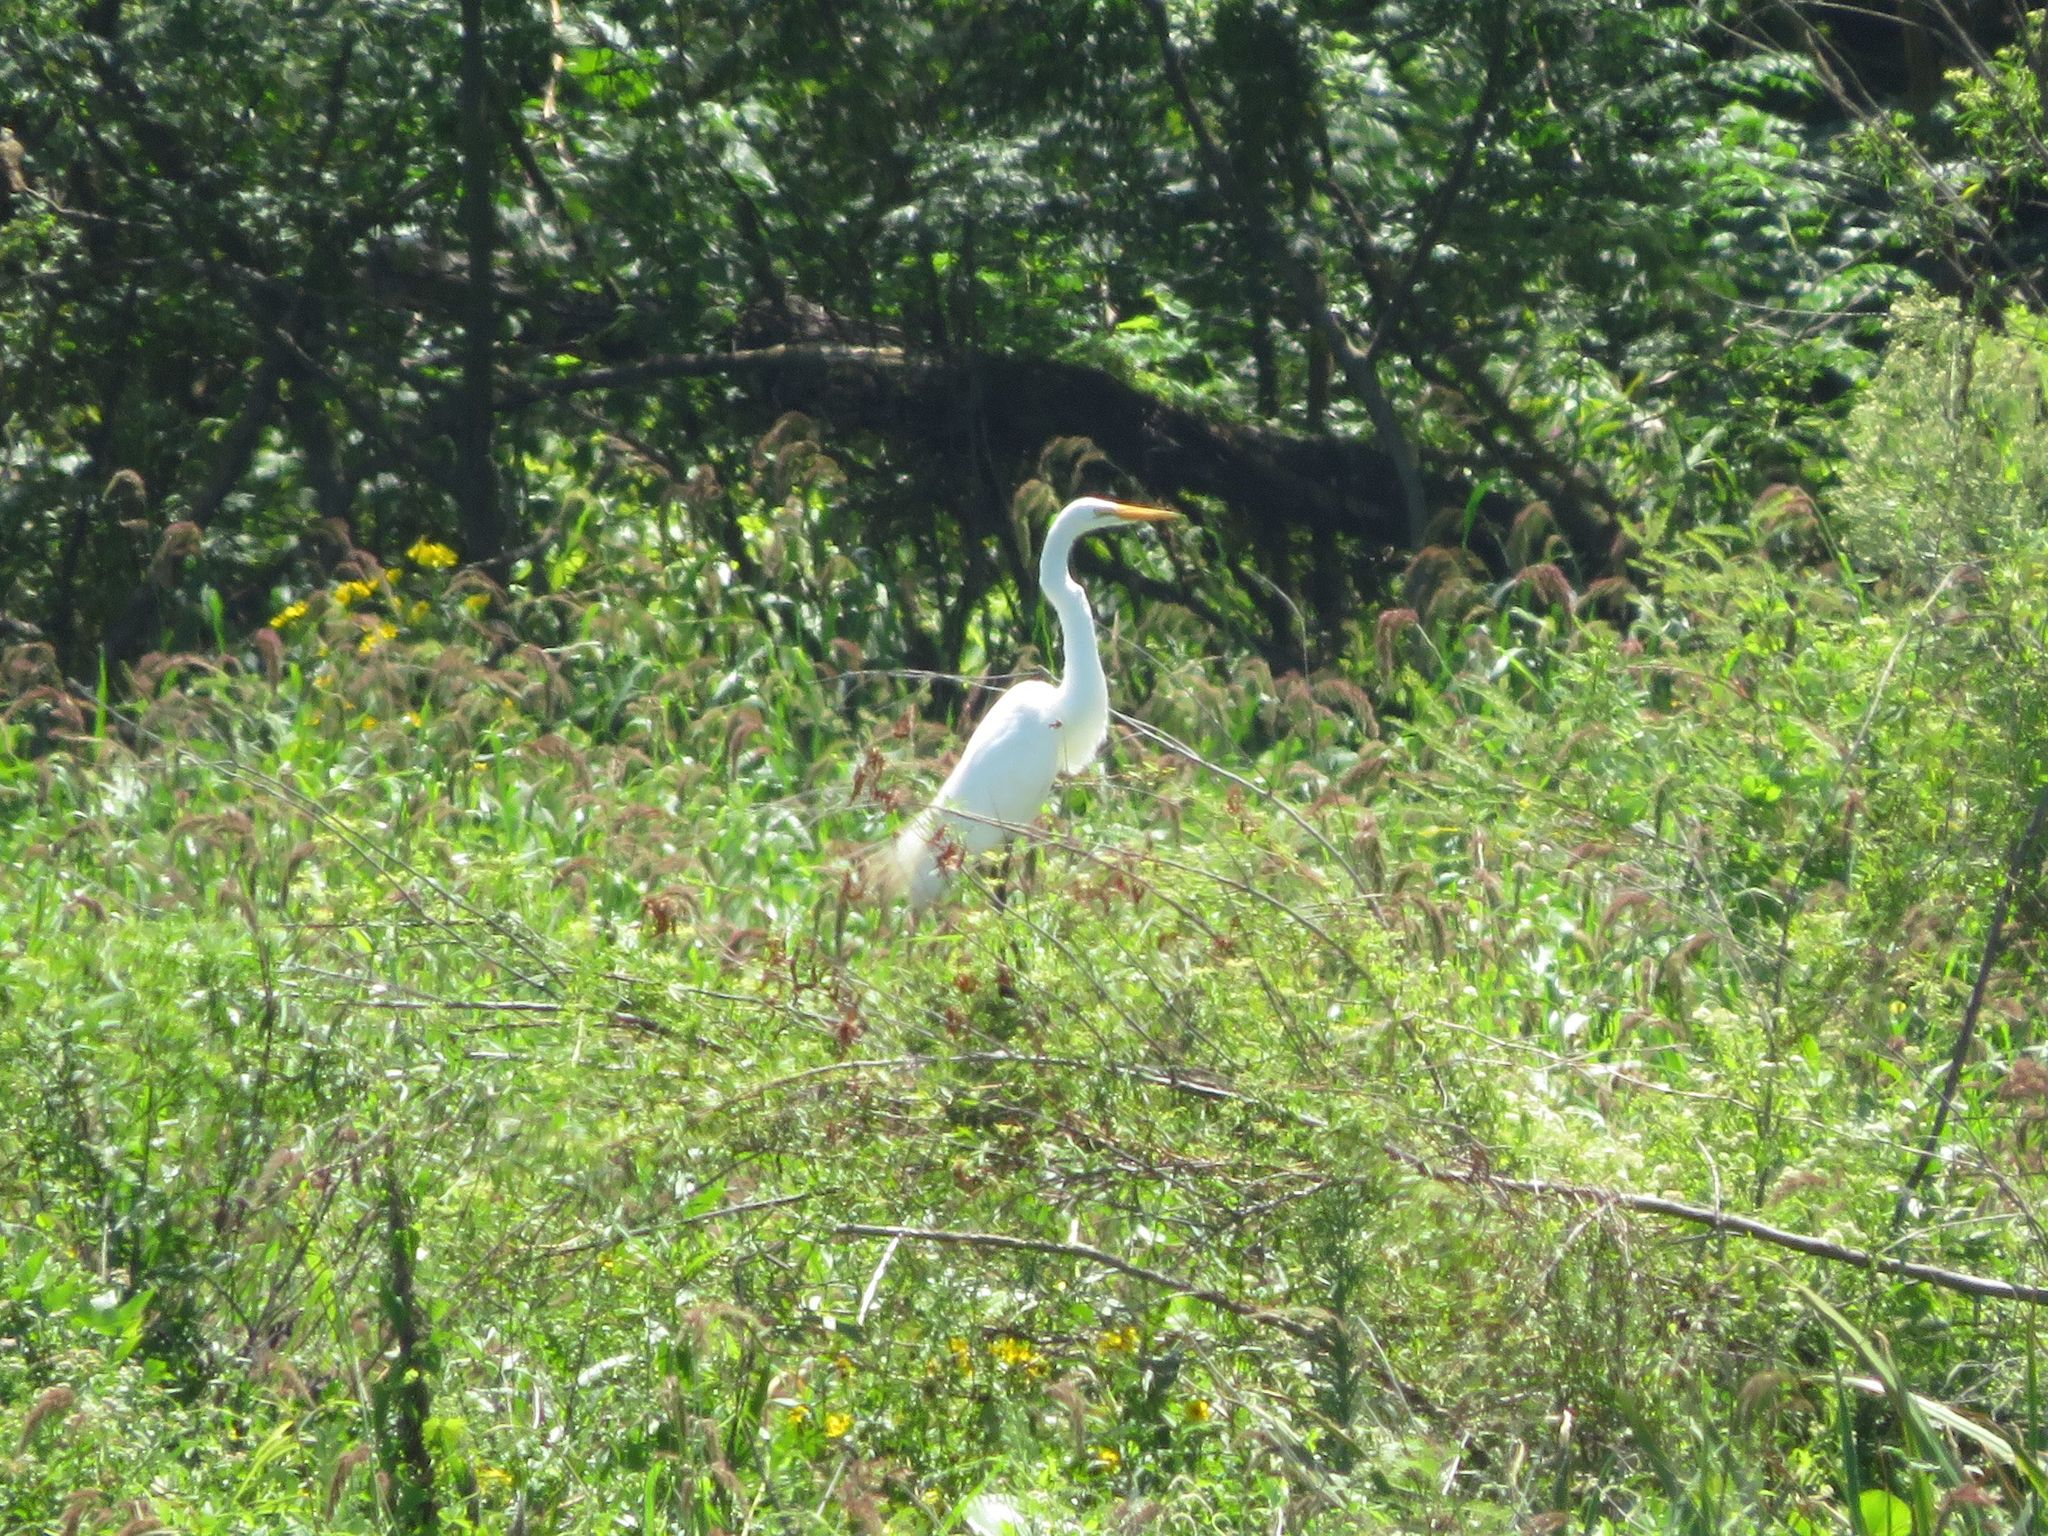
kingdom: Animalia
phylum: Chordata
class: Aves
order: Pelecaniformes
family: Ardeidae
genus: Ardea
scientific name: Ardea alba
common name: Great egret
